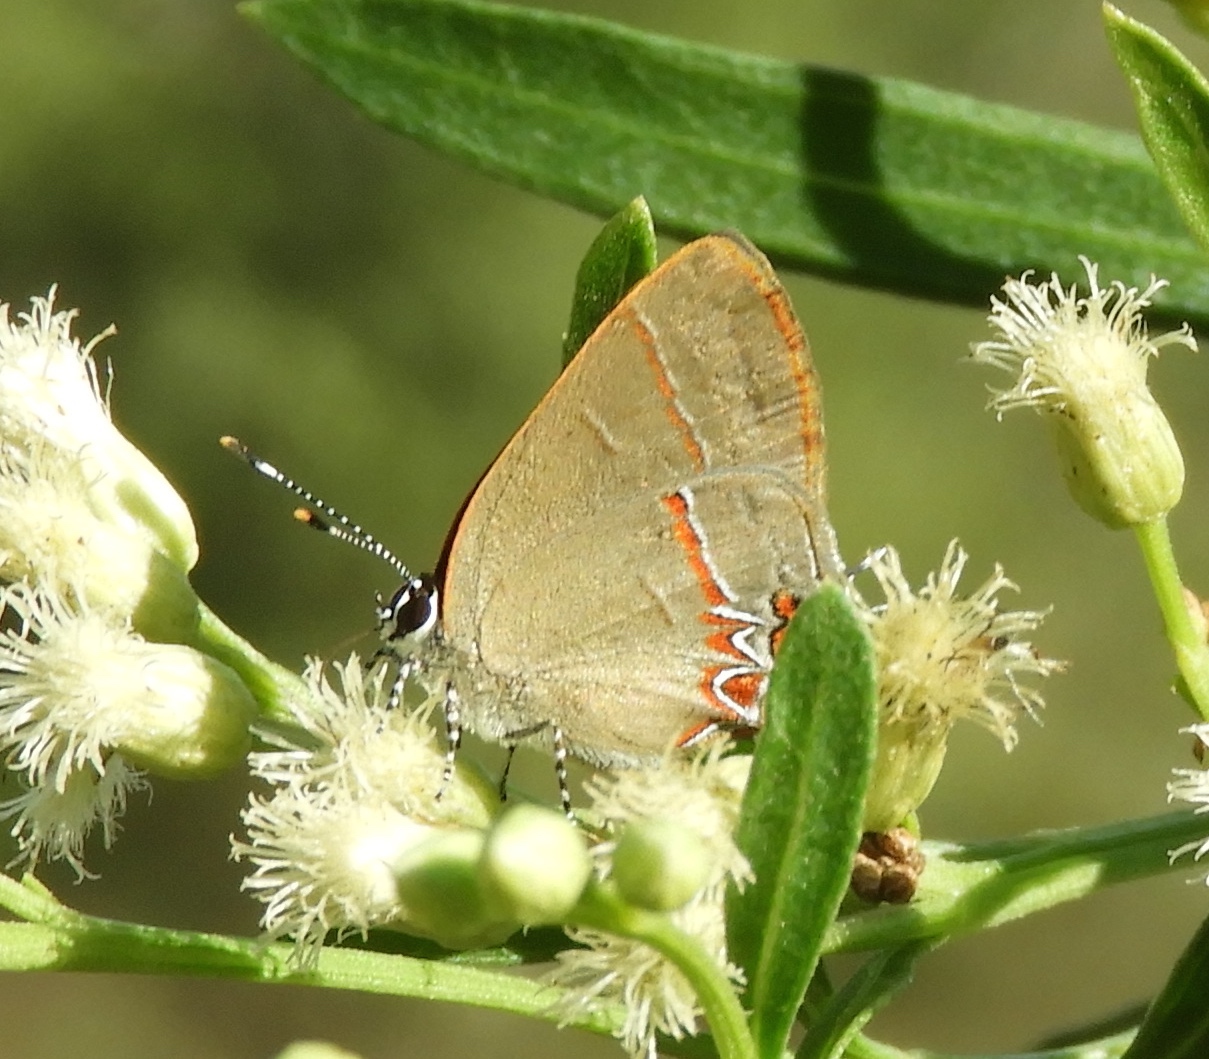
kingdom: Animalia
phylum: Arthropoda
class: Insecta
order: Lepidoptera
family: Lycaenidae
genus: Calycopis
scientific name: Calycopis isobeon
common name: Dusky-blue groundstreak
